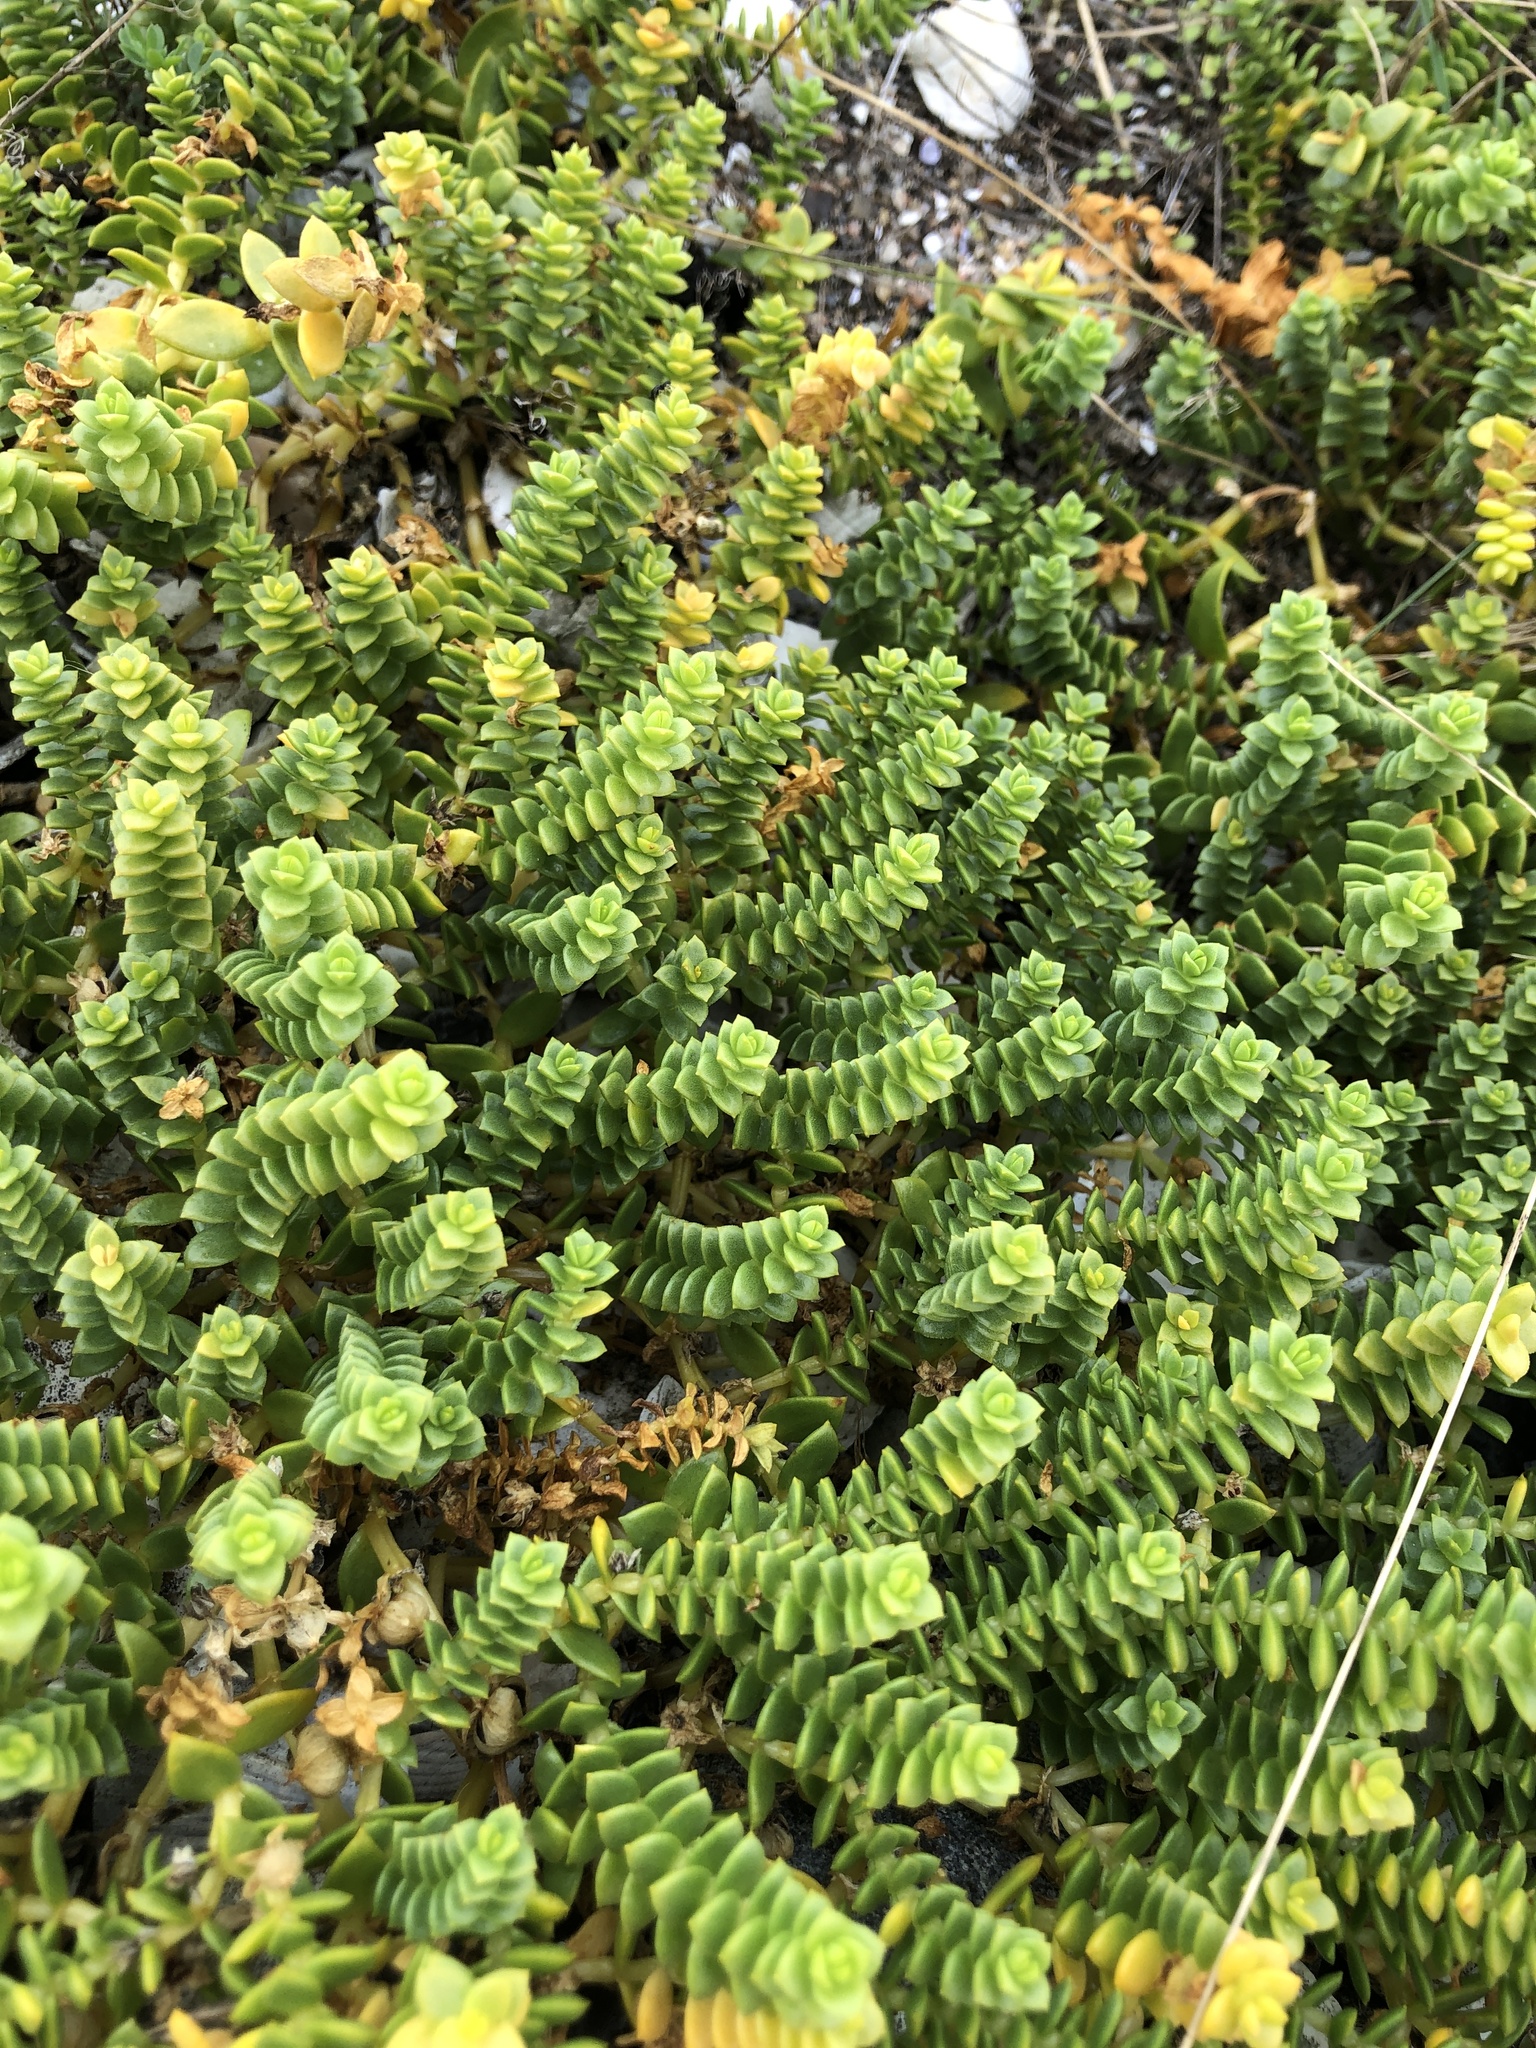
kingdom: Plantae
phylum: Tracheophyta
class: Magnoliopsida
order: Caryophyllales
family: Caryophyllaceae
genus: Honckenya
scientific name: Honckenya peploides
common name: Sea sandwort
